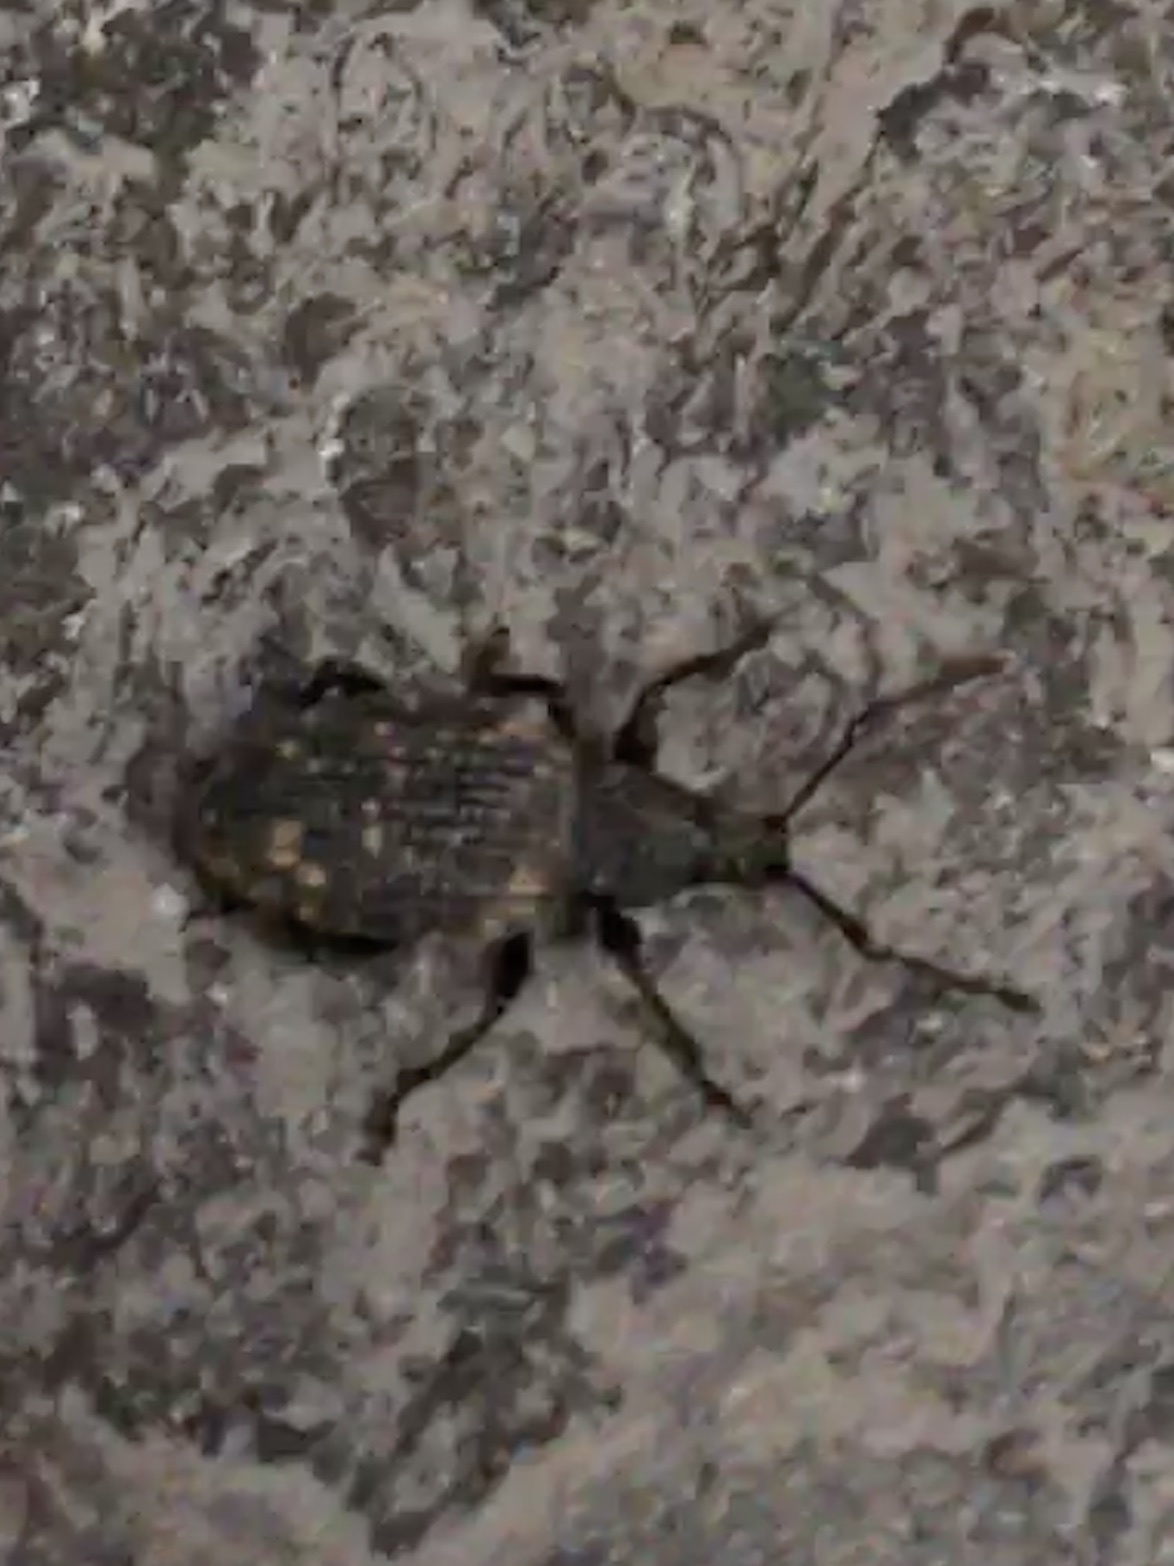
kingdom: Animalia
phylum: Arthropoda
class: Insecta
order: Coleoptera
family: Curculionidae
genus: Otiorhynchus
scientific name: Otiorhynchus sulcatus
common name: Black vine weevil
